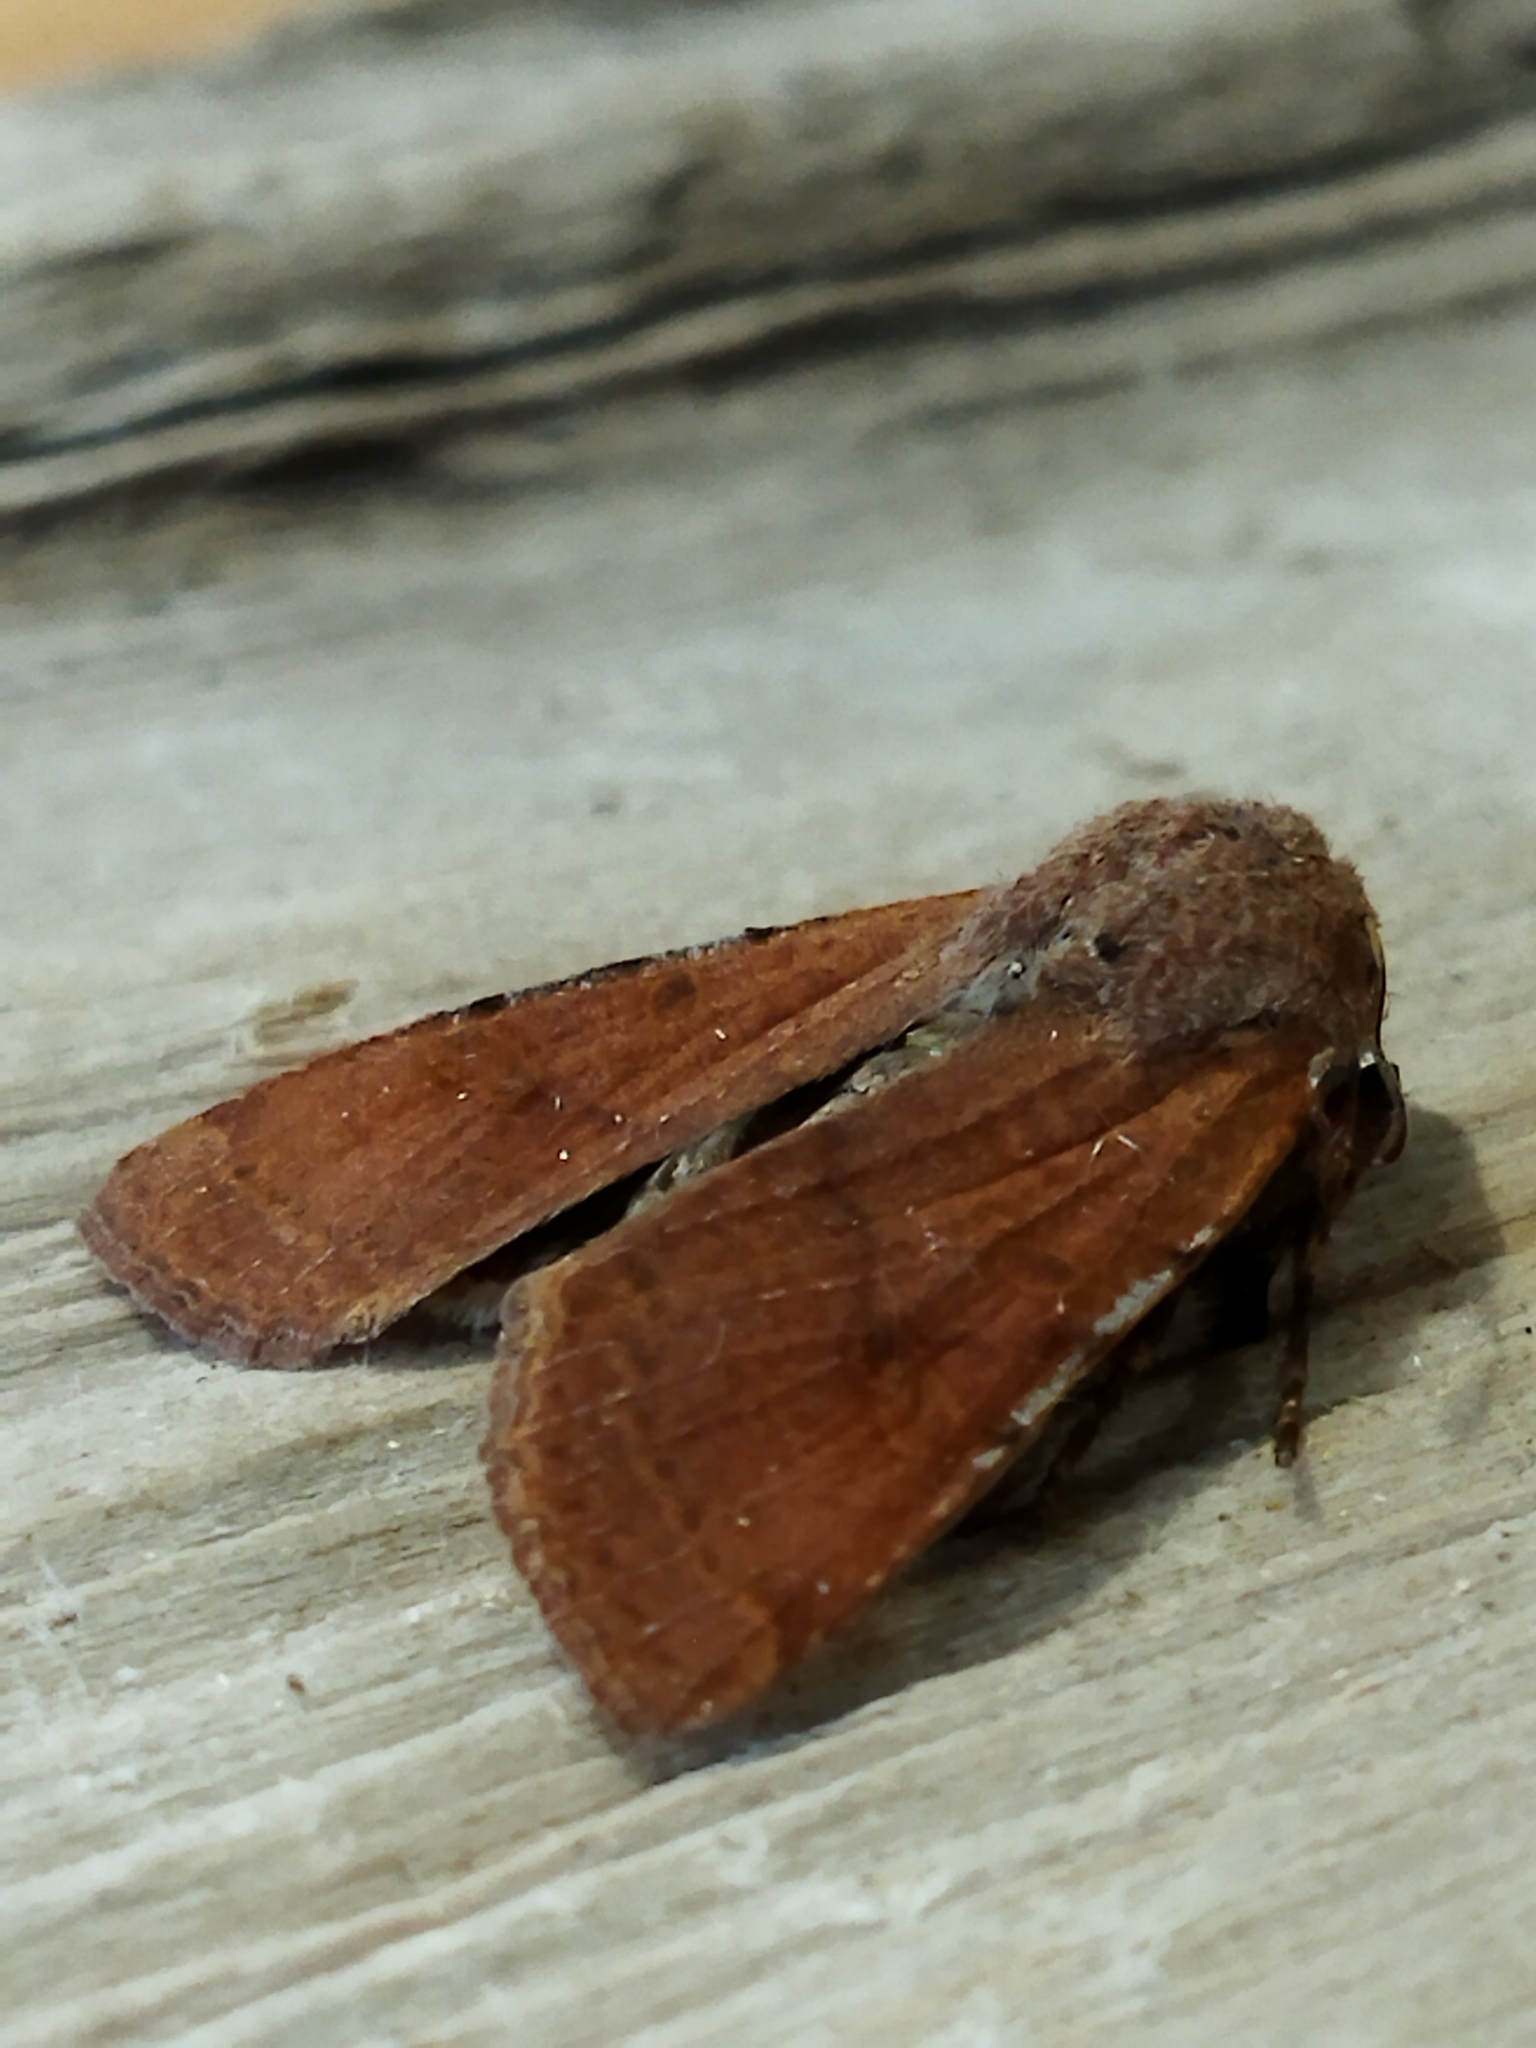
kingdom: Animalia
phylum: Arthropoda
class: Insecta
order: Lepidoptera
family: Noctuidae
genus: Agrochola
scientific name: Agrochola lychnidis
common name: Beaded chestnut
